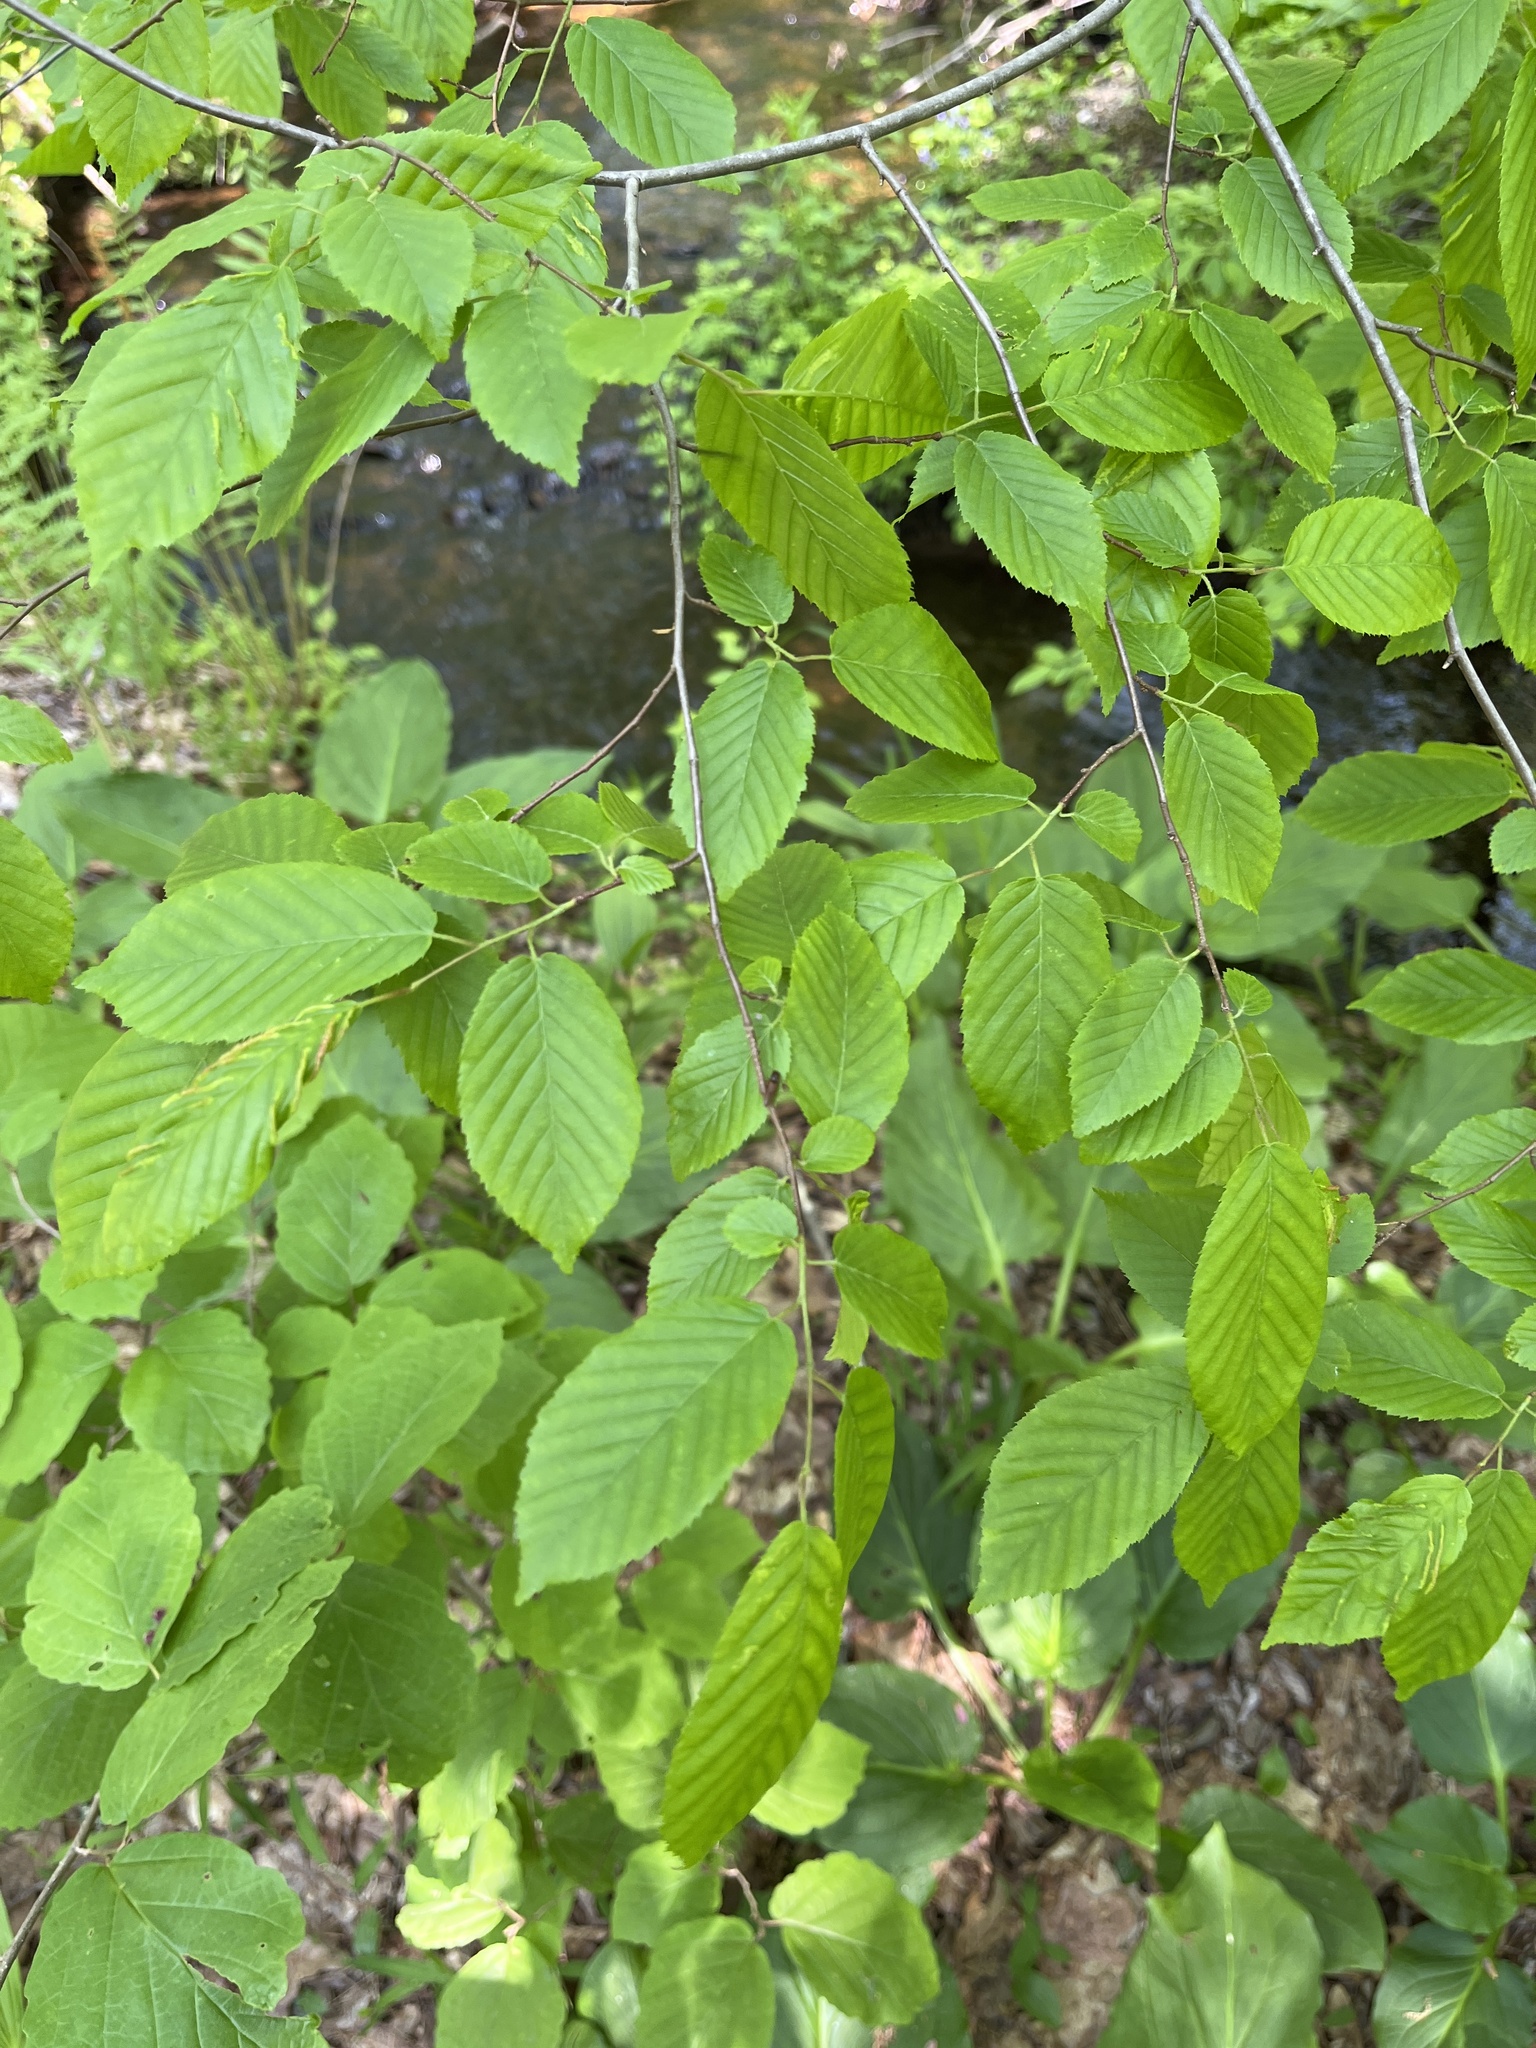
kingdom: Plantae
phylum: Tracheophyta
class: Magnoliopsida
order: Fagales
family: Betulaceae
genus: Carpinus
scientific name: Carpinus caroliniana
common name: American hornbeam
